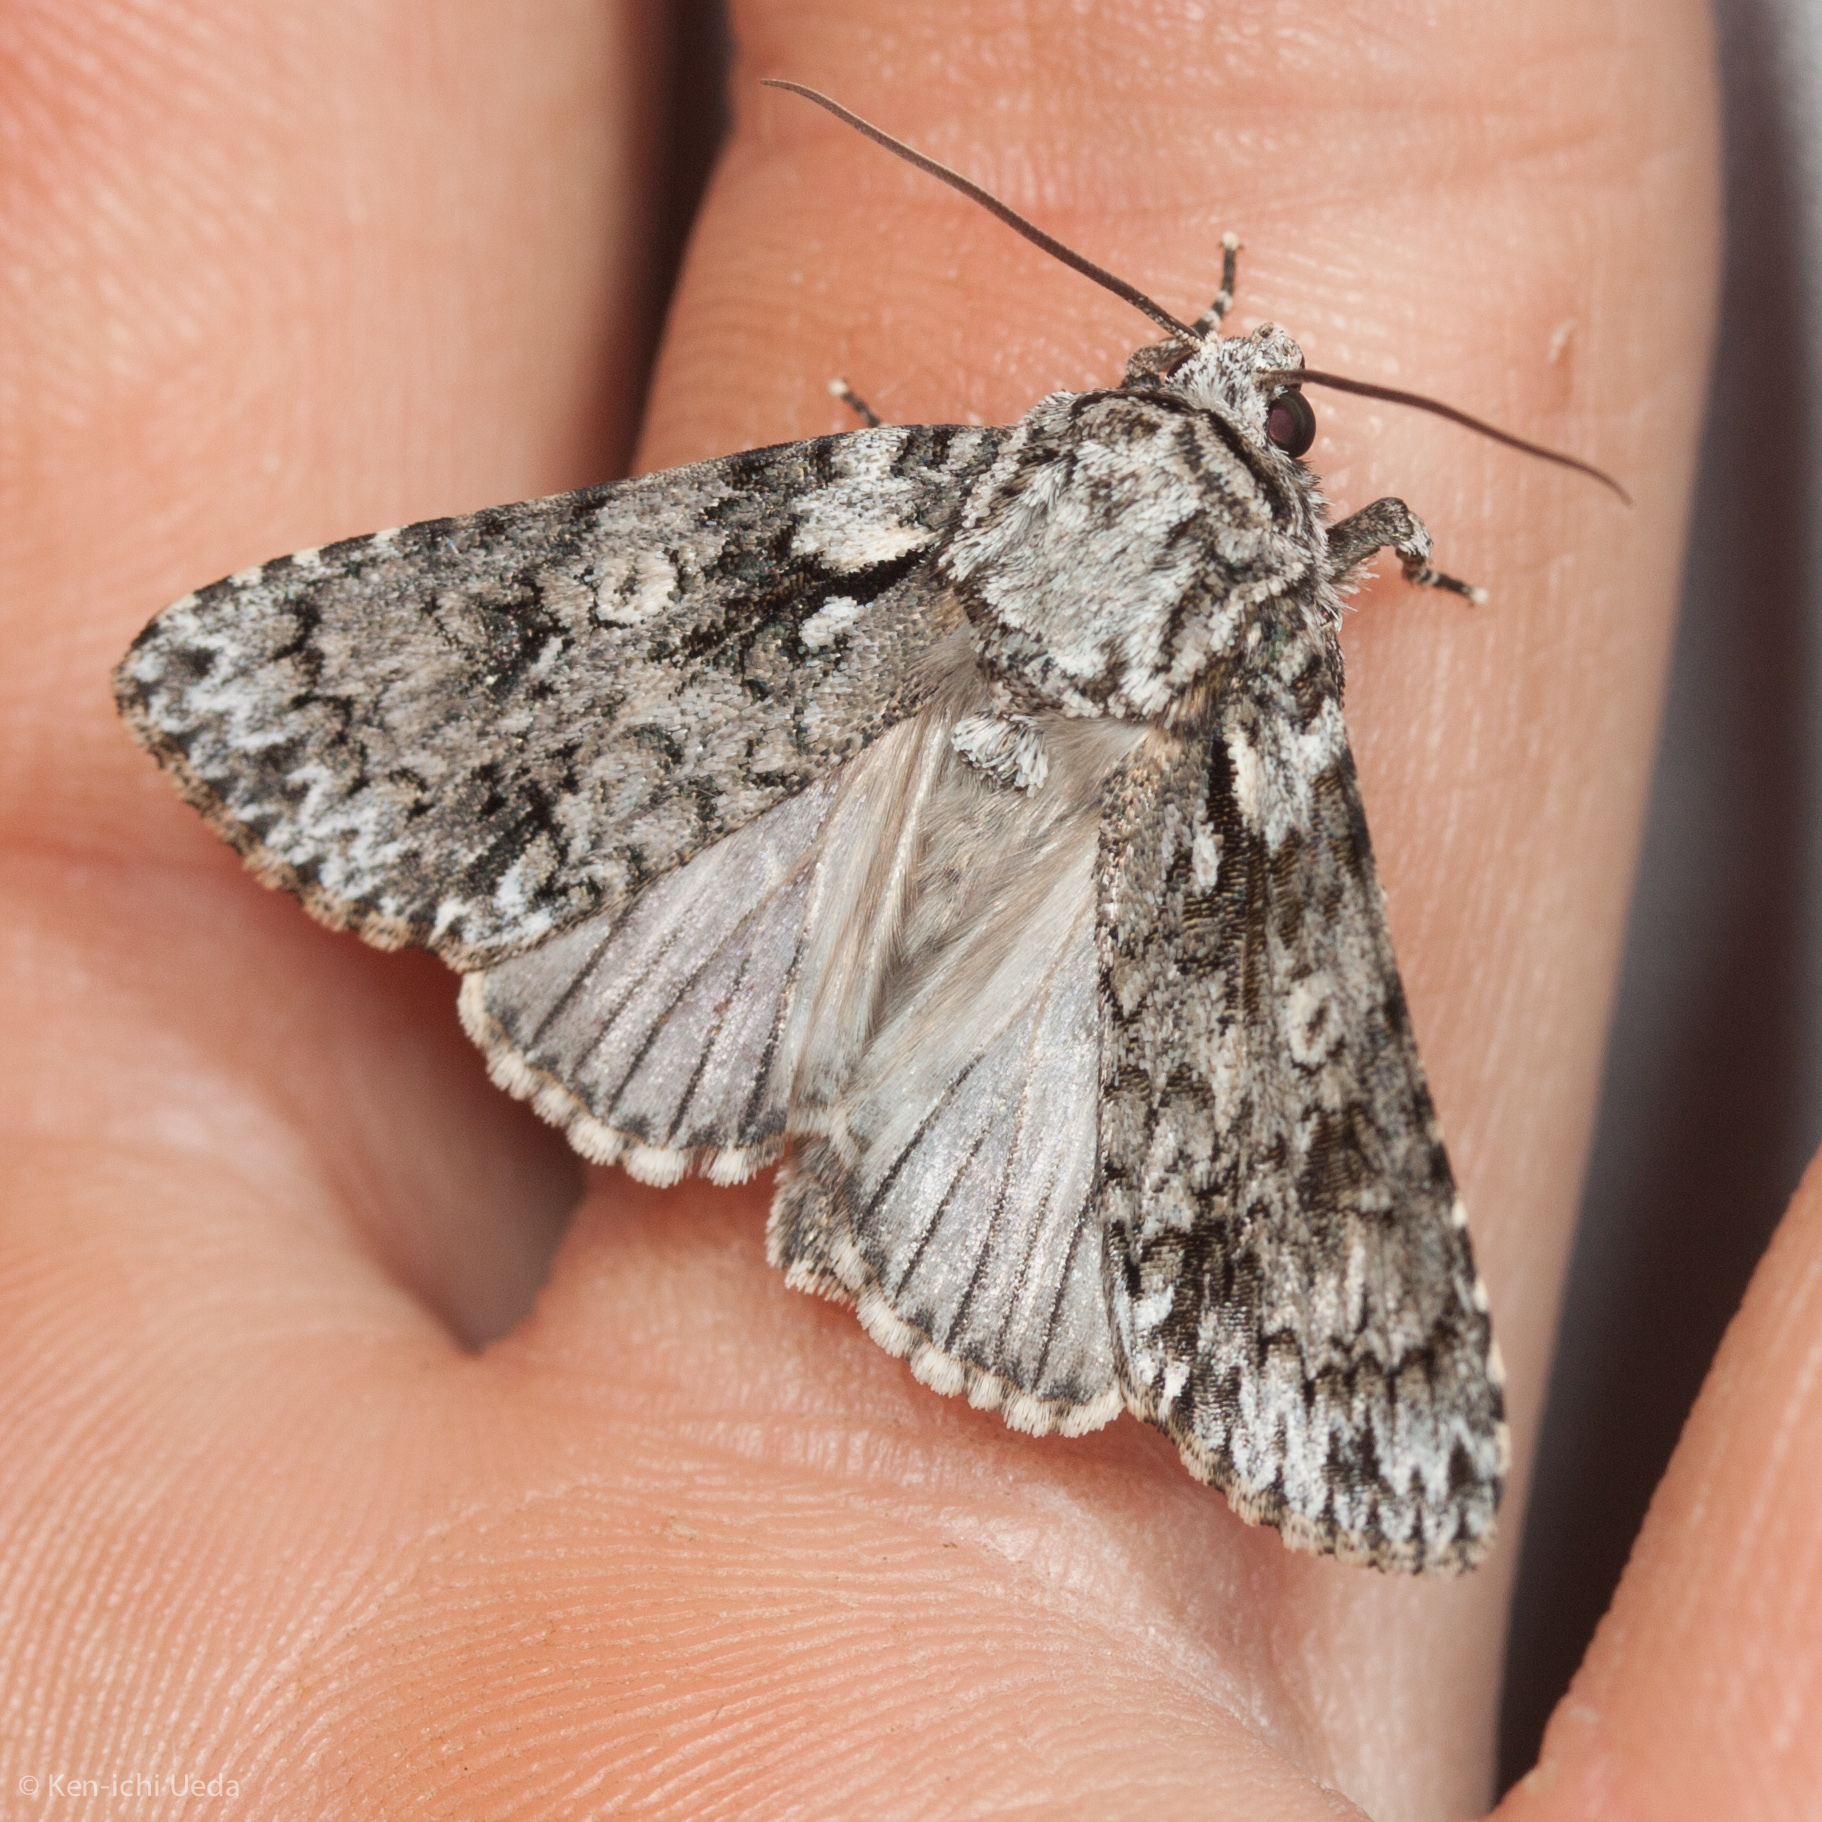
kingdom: Animalia
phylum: Arthropoda
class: Insecta
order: Lepidoptera
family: Noctuidae
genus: Acronicta
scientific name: Acronicta marmorata
